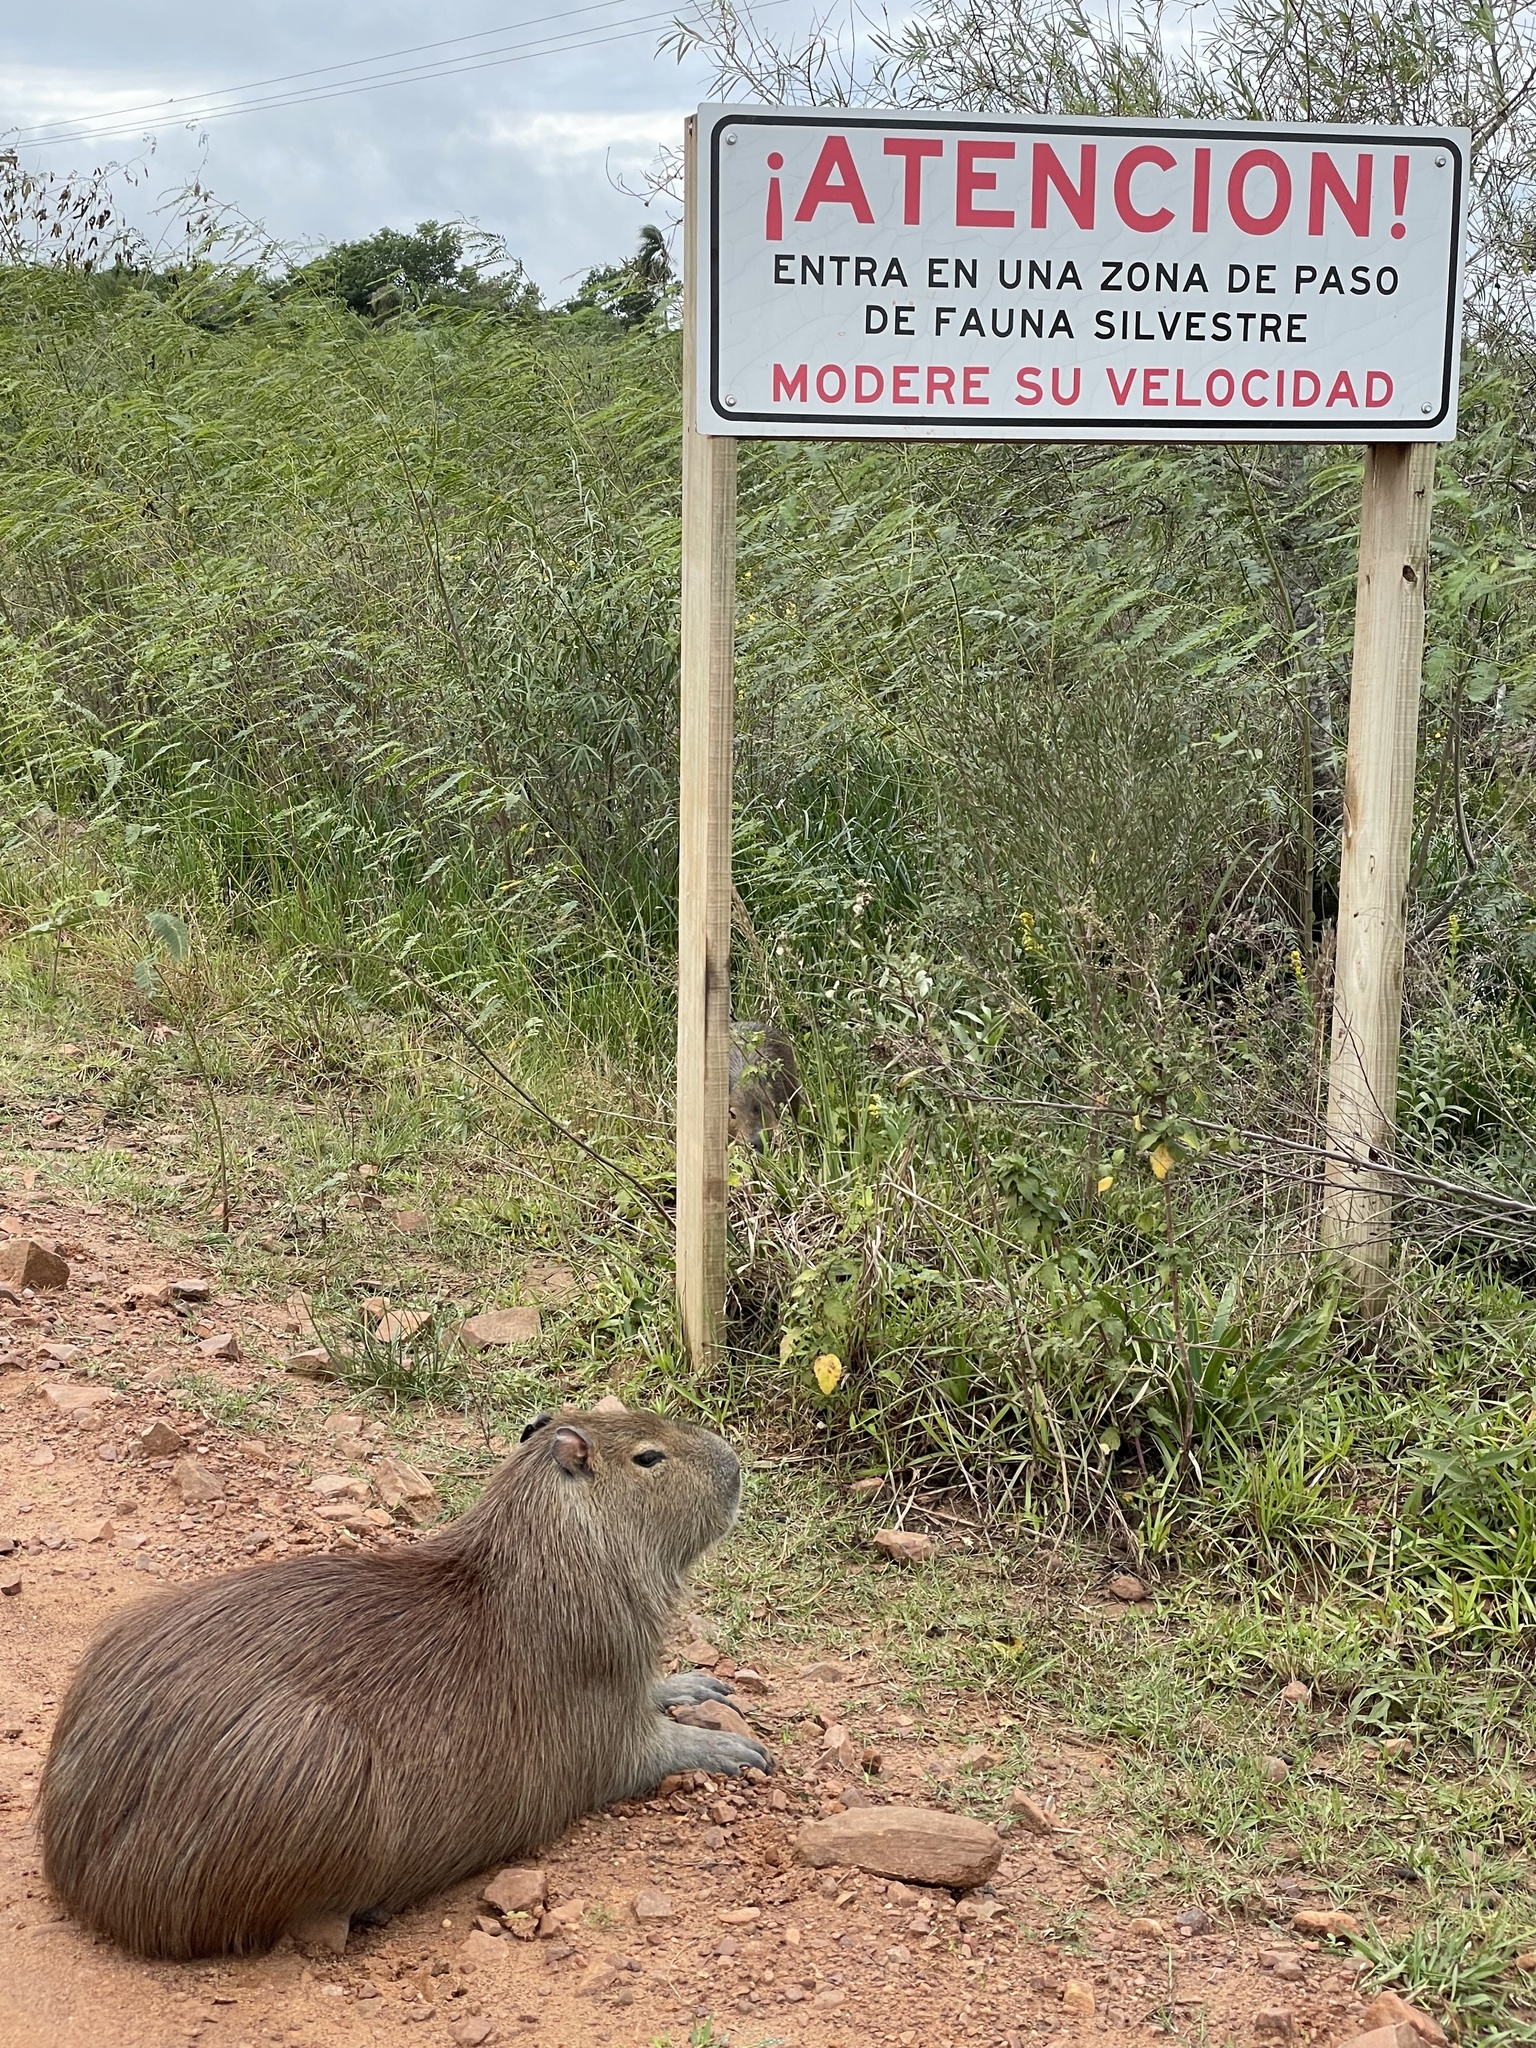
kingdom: Animalia
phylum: Chordata
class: Mammalia
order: Rodentia
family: Caviidae
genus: Hydrochoerus
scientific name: Hydrochoerus hydrochaeris
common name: Capybara
